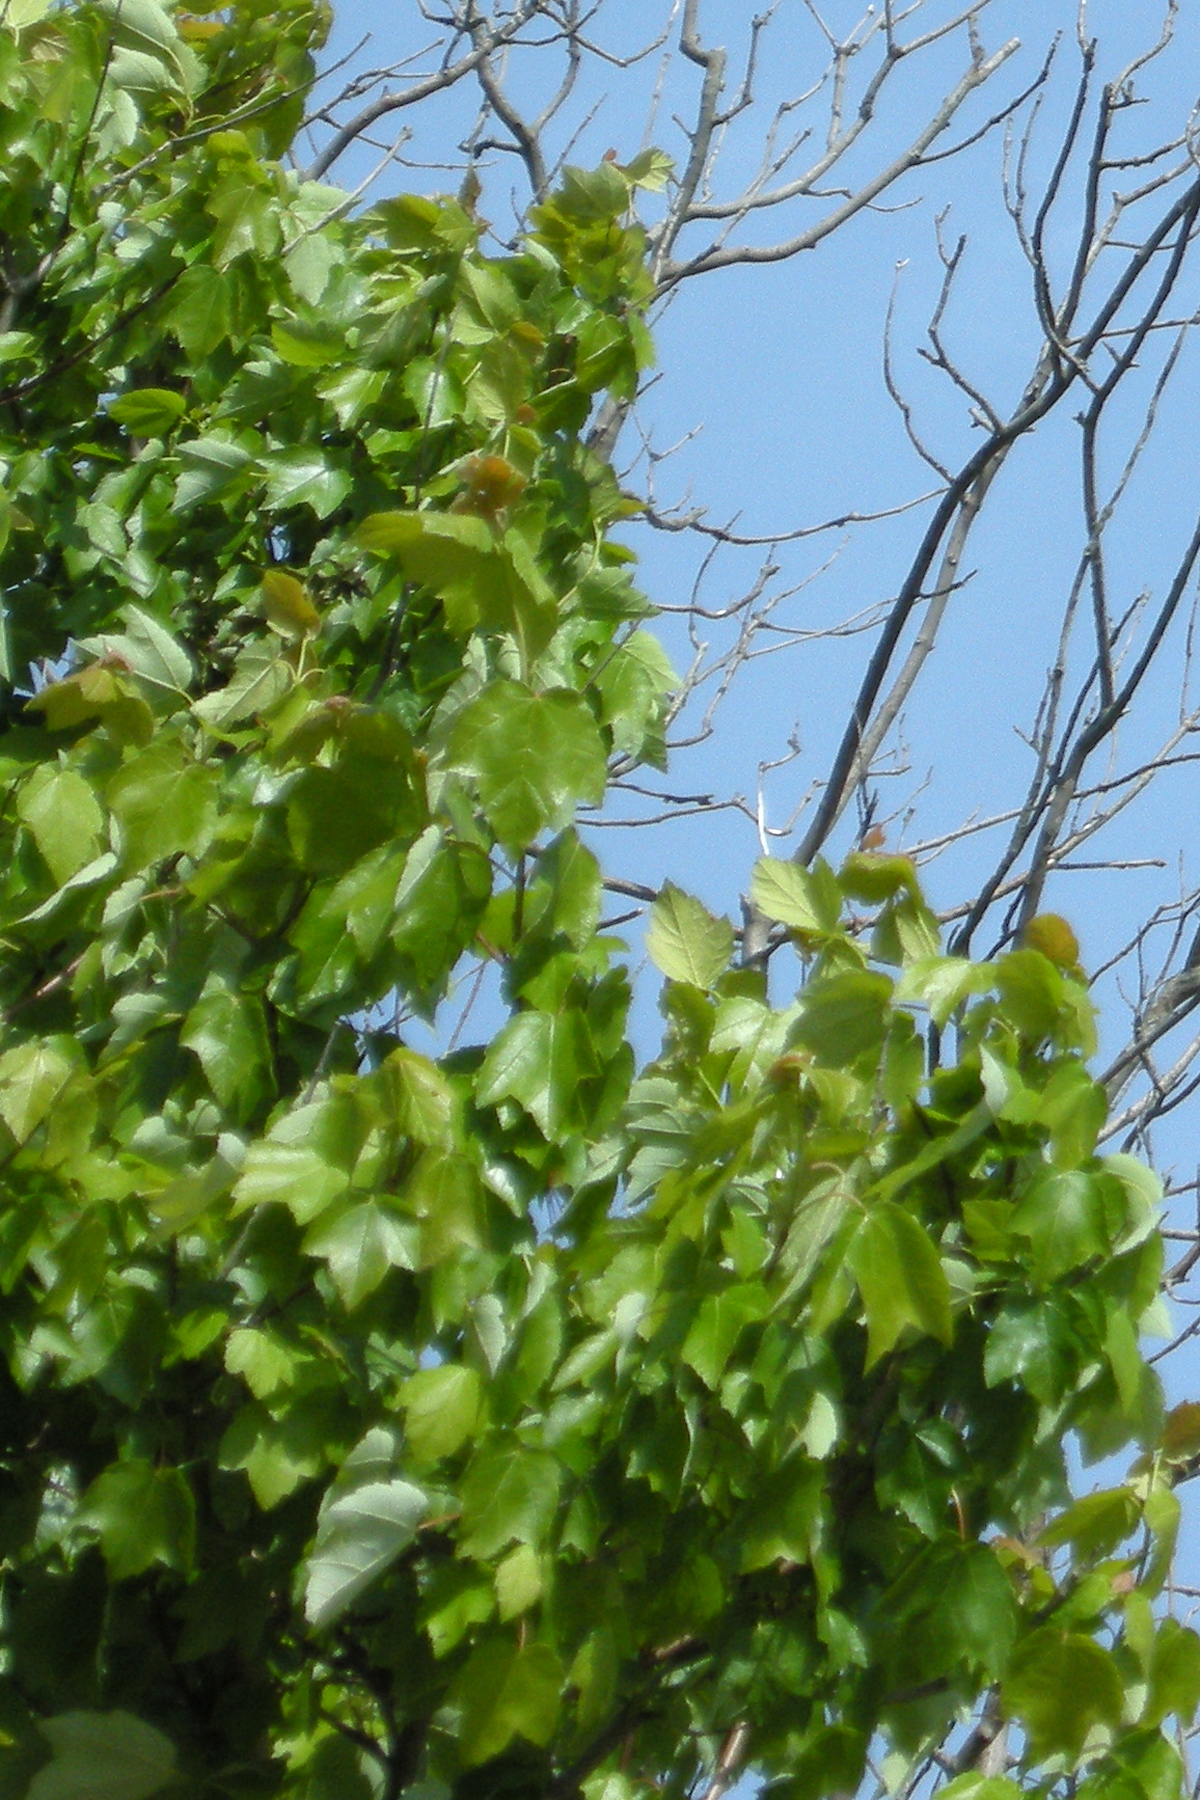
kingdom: Plantae
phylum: Tracheophyta
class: Magnoliopsida
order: Sapindales
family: Sapindaceae
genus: Acer
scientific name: Acer rubrum
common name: Red maple
